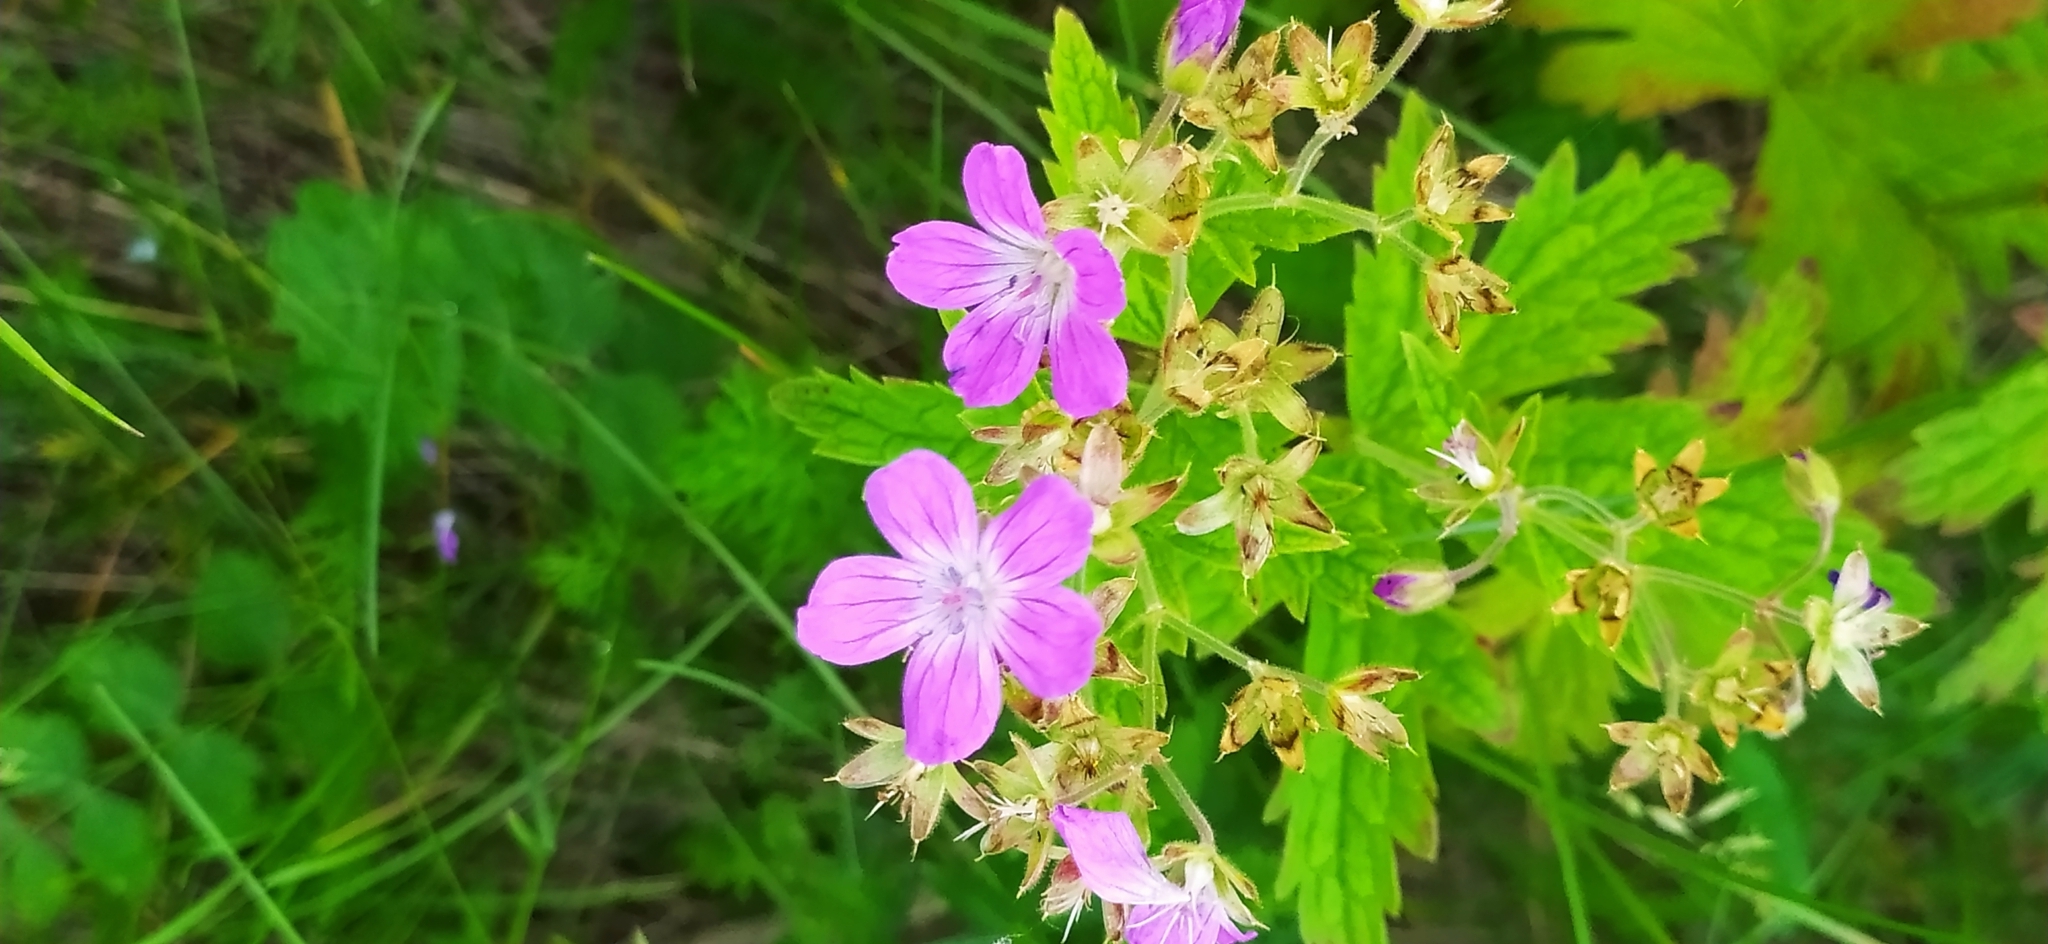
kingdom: Plantae
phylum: Tracheophyta
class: Magnoliopsida
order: Geraniales
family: Geraniaceae
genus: Geranium
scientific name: Geranium sylvaticum
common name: Wood crane's-bill
